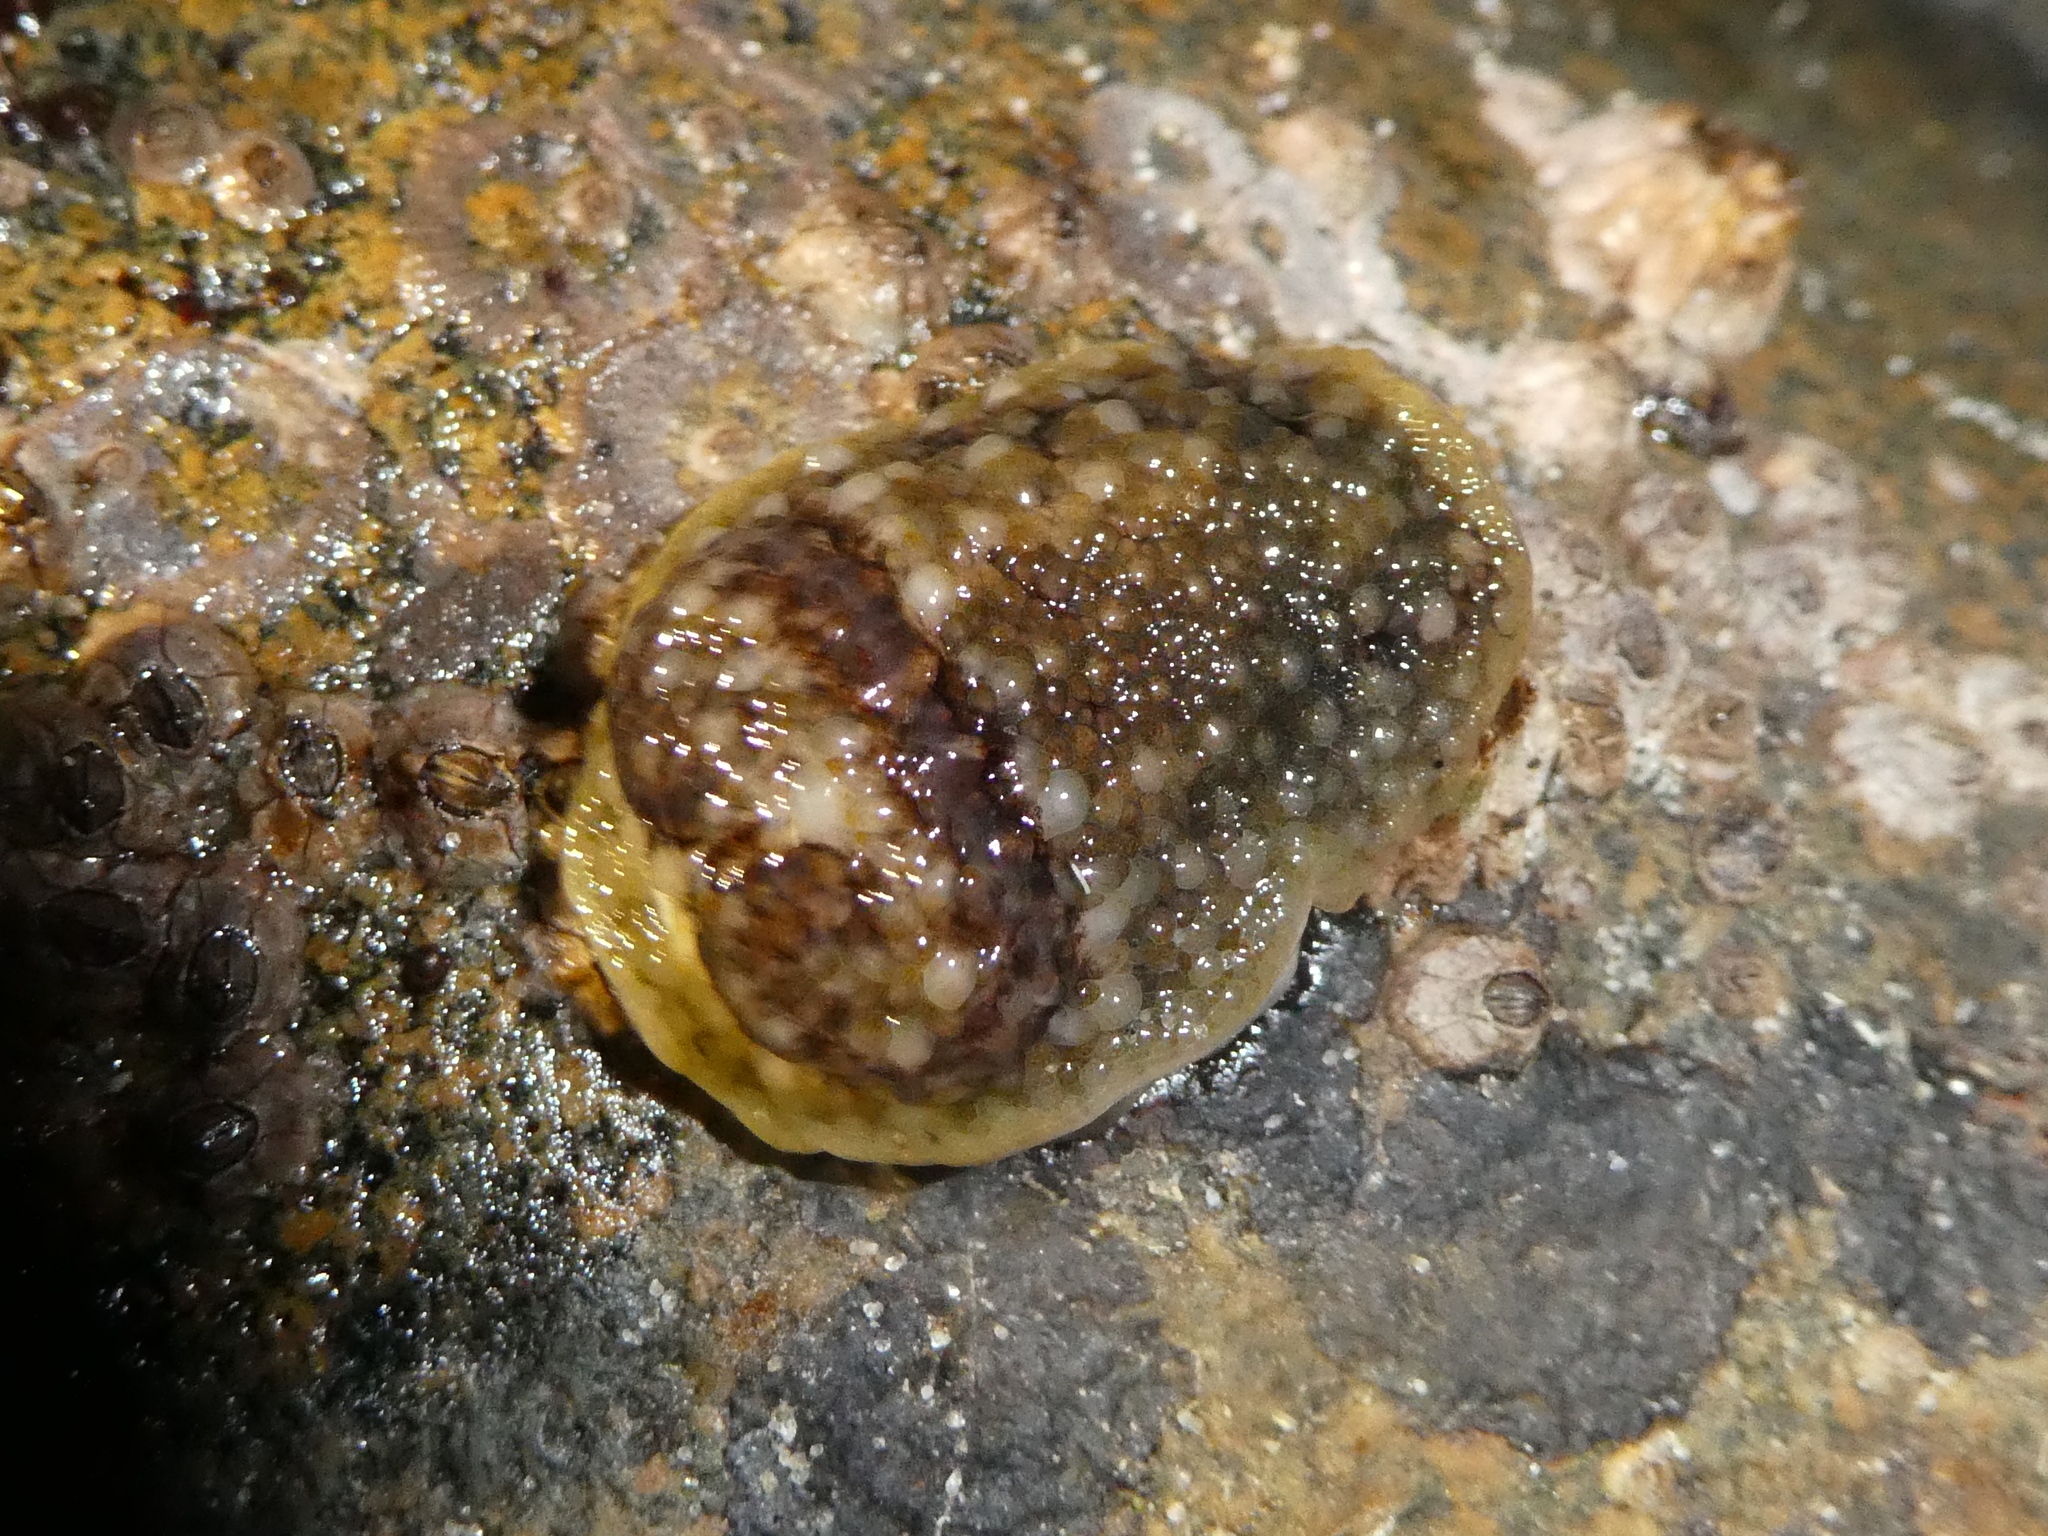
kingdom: Animalia
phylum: Mollusca
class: Gastropoda
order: Nudibranchia
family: Onchidorididae
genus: Onchidoris
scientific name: Onchidoris bilamellata
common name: Barnacle-eating onchidoris
